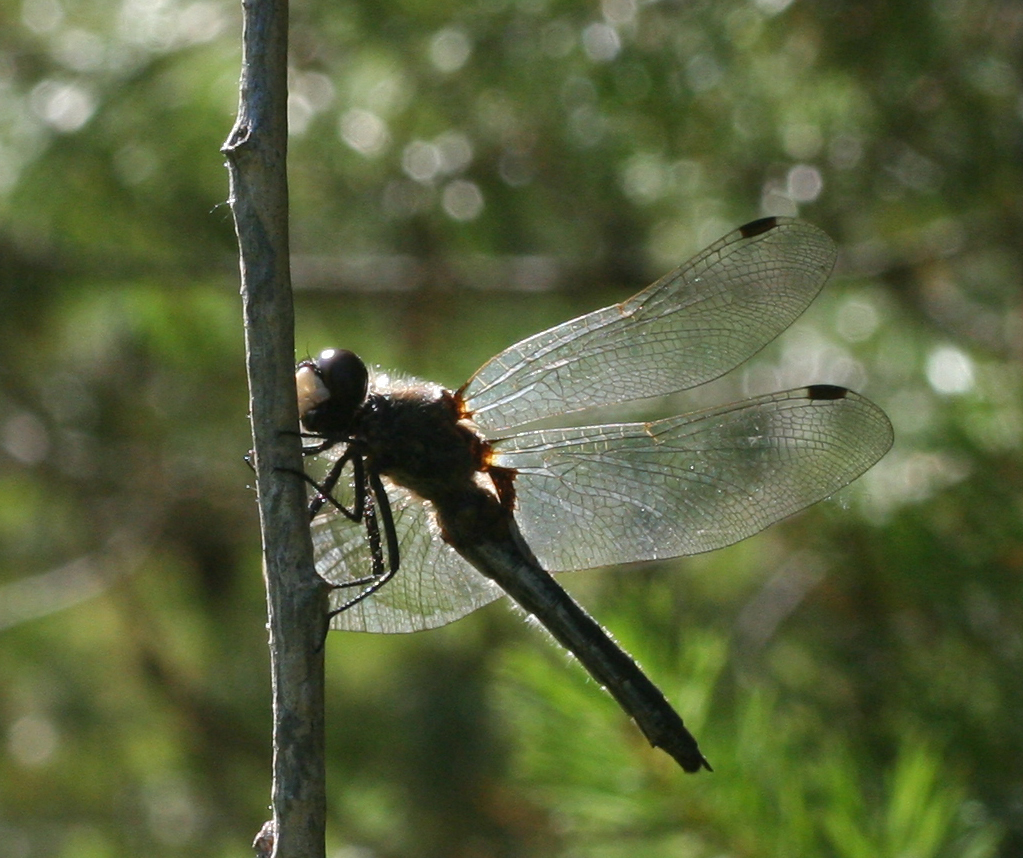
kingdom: Animalia
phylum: Arthropoda
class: Insecta
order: Odonata
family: Libellulidae
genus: Leucorrhinia
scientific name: Leucorrhinia rubicunda
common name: Ruby whiteface
